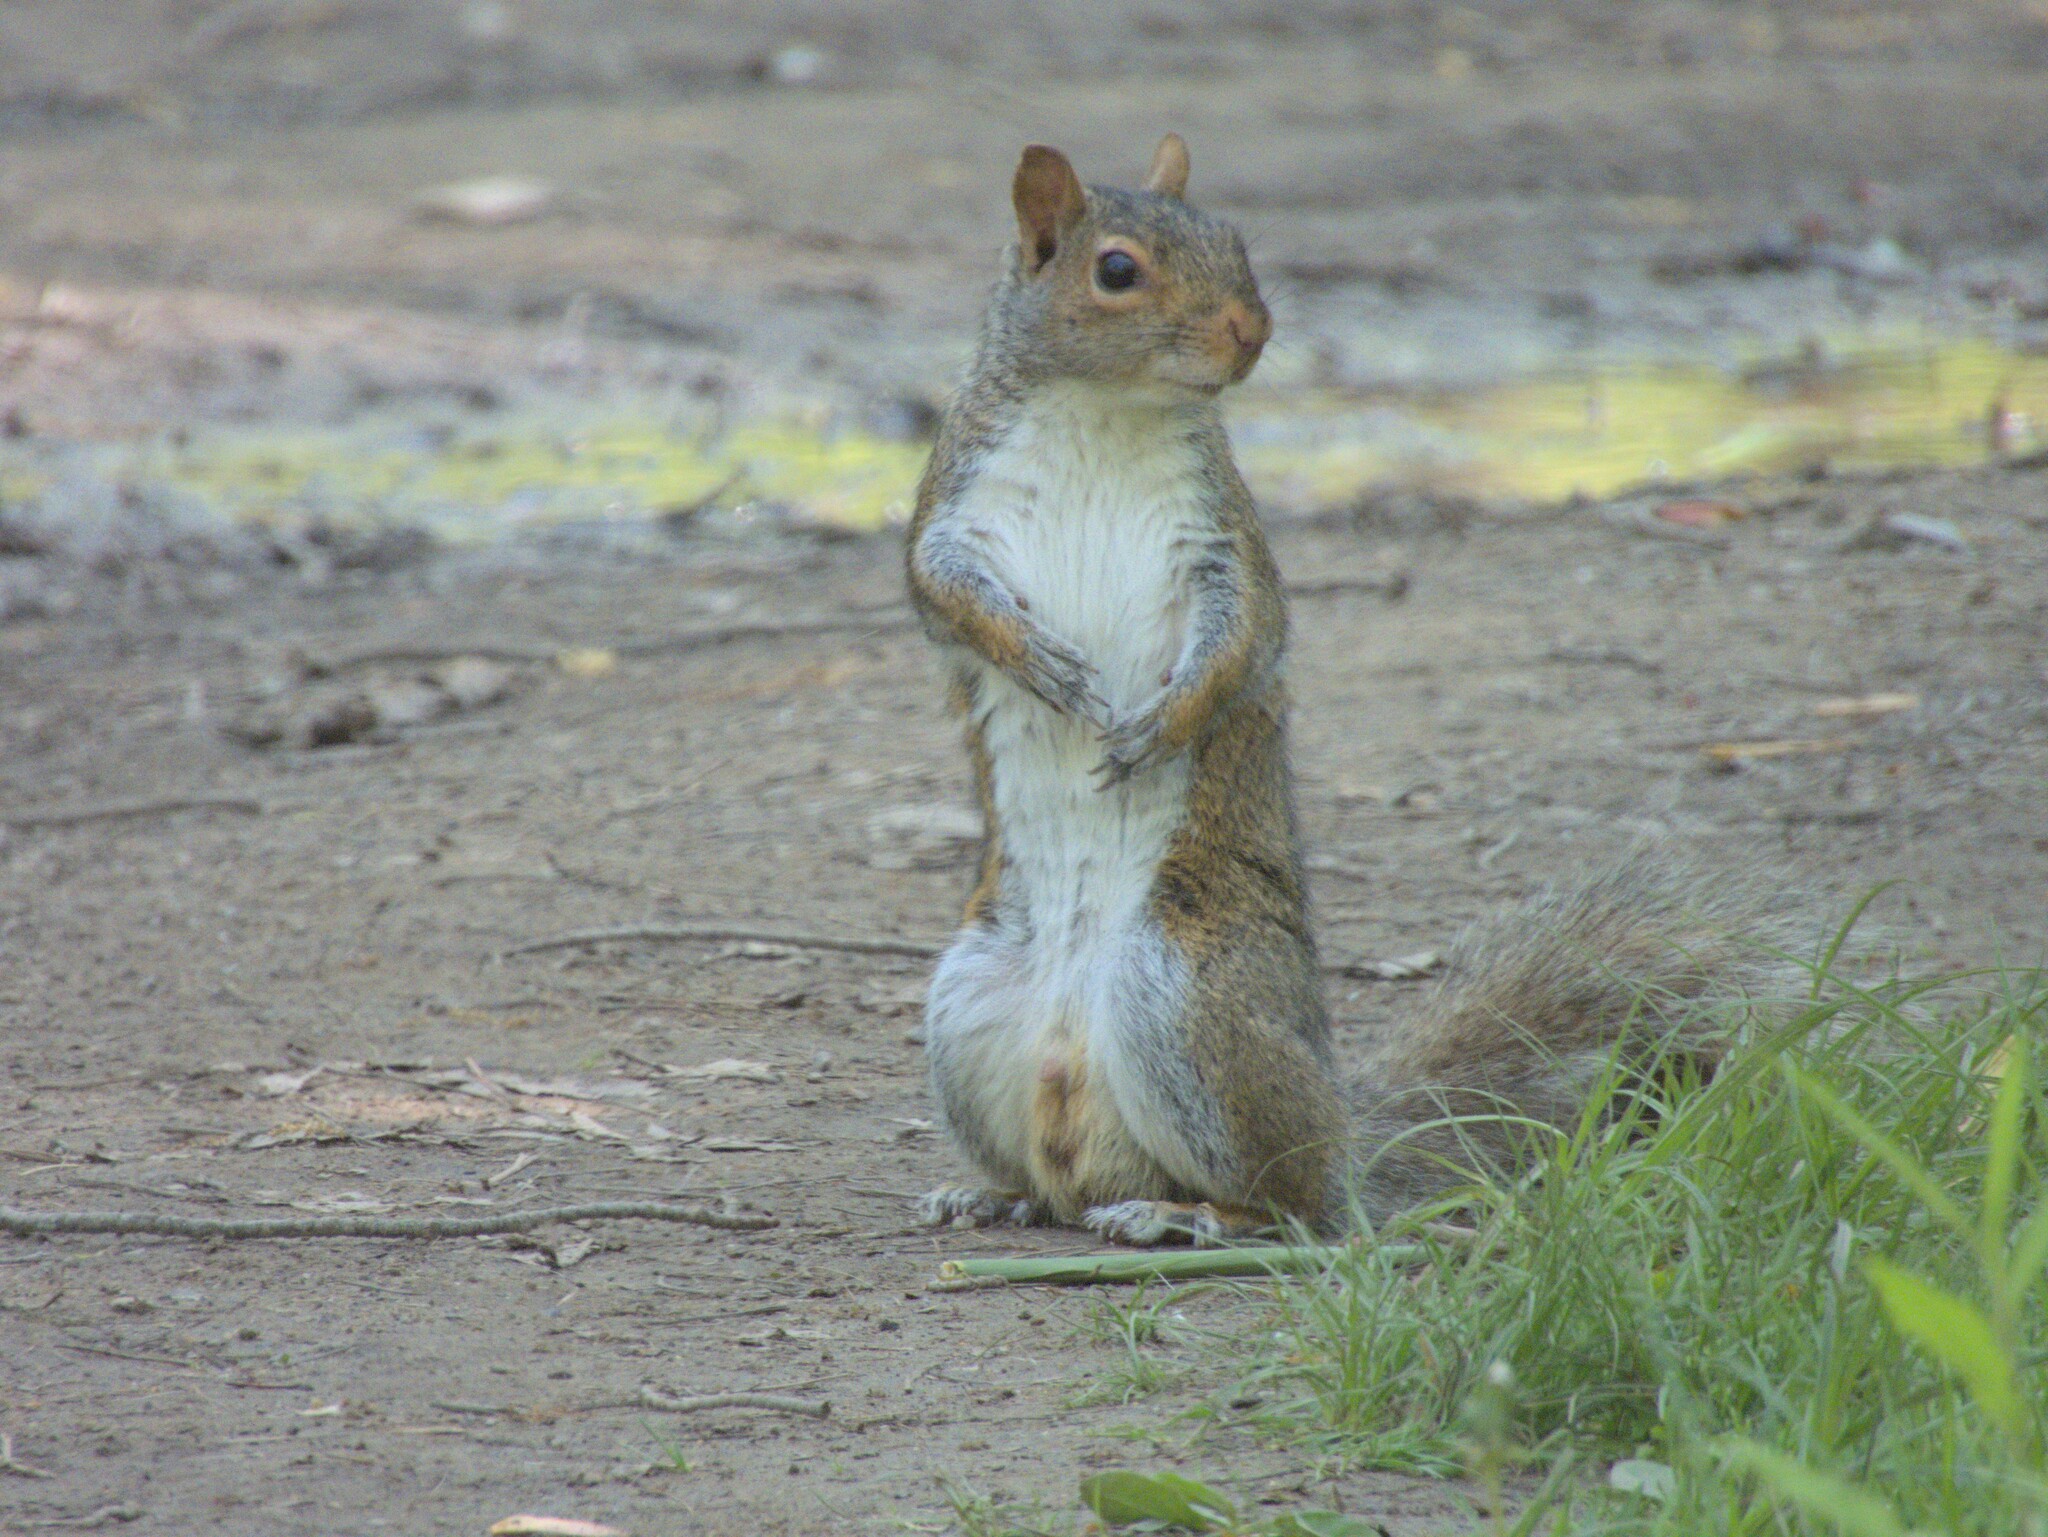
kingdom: Animalia
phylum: Chordata
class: Mammalia
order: Rodentia
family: Sciuridae
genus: Sciurus
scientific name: Sciurus carolinensis
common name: Eastern gray squirrel
